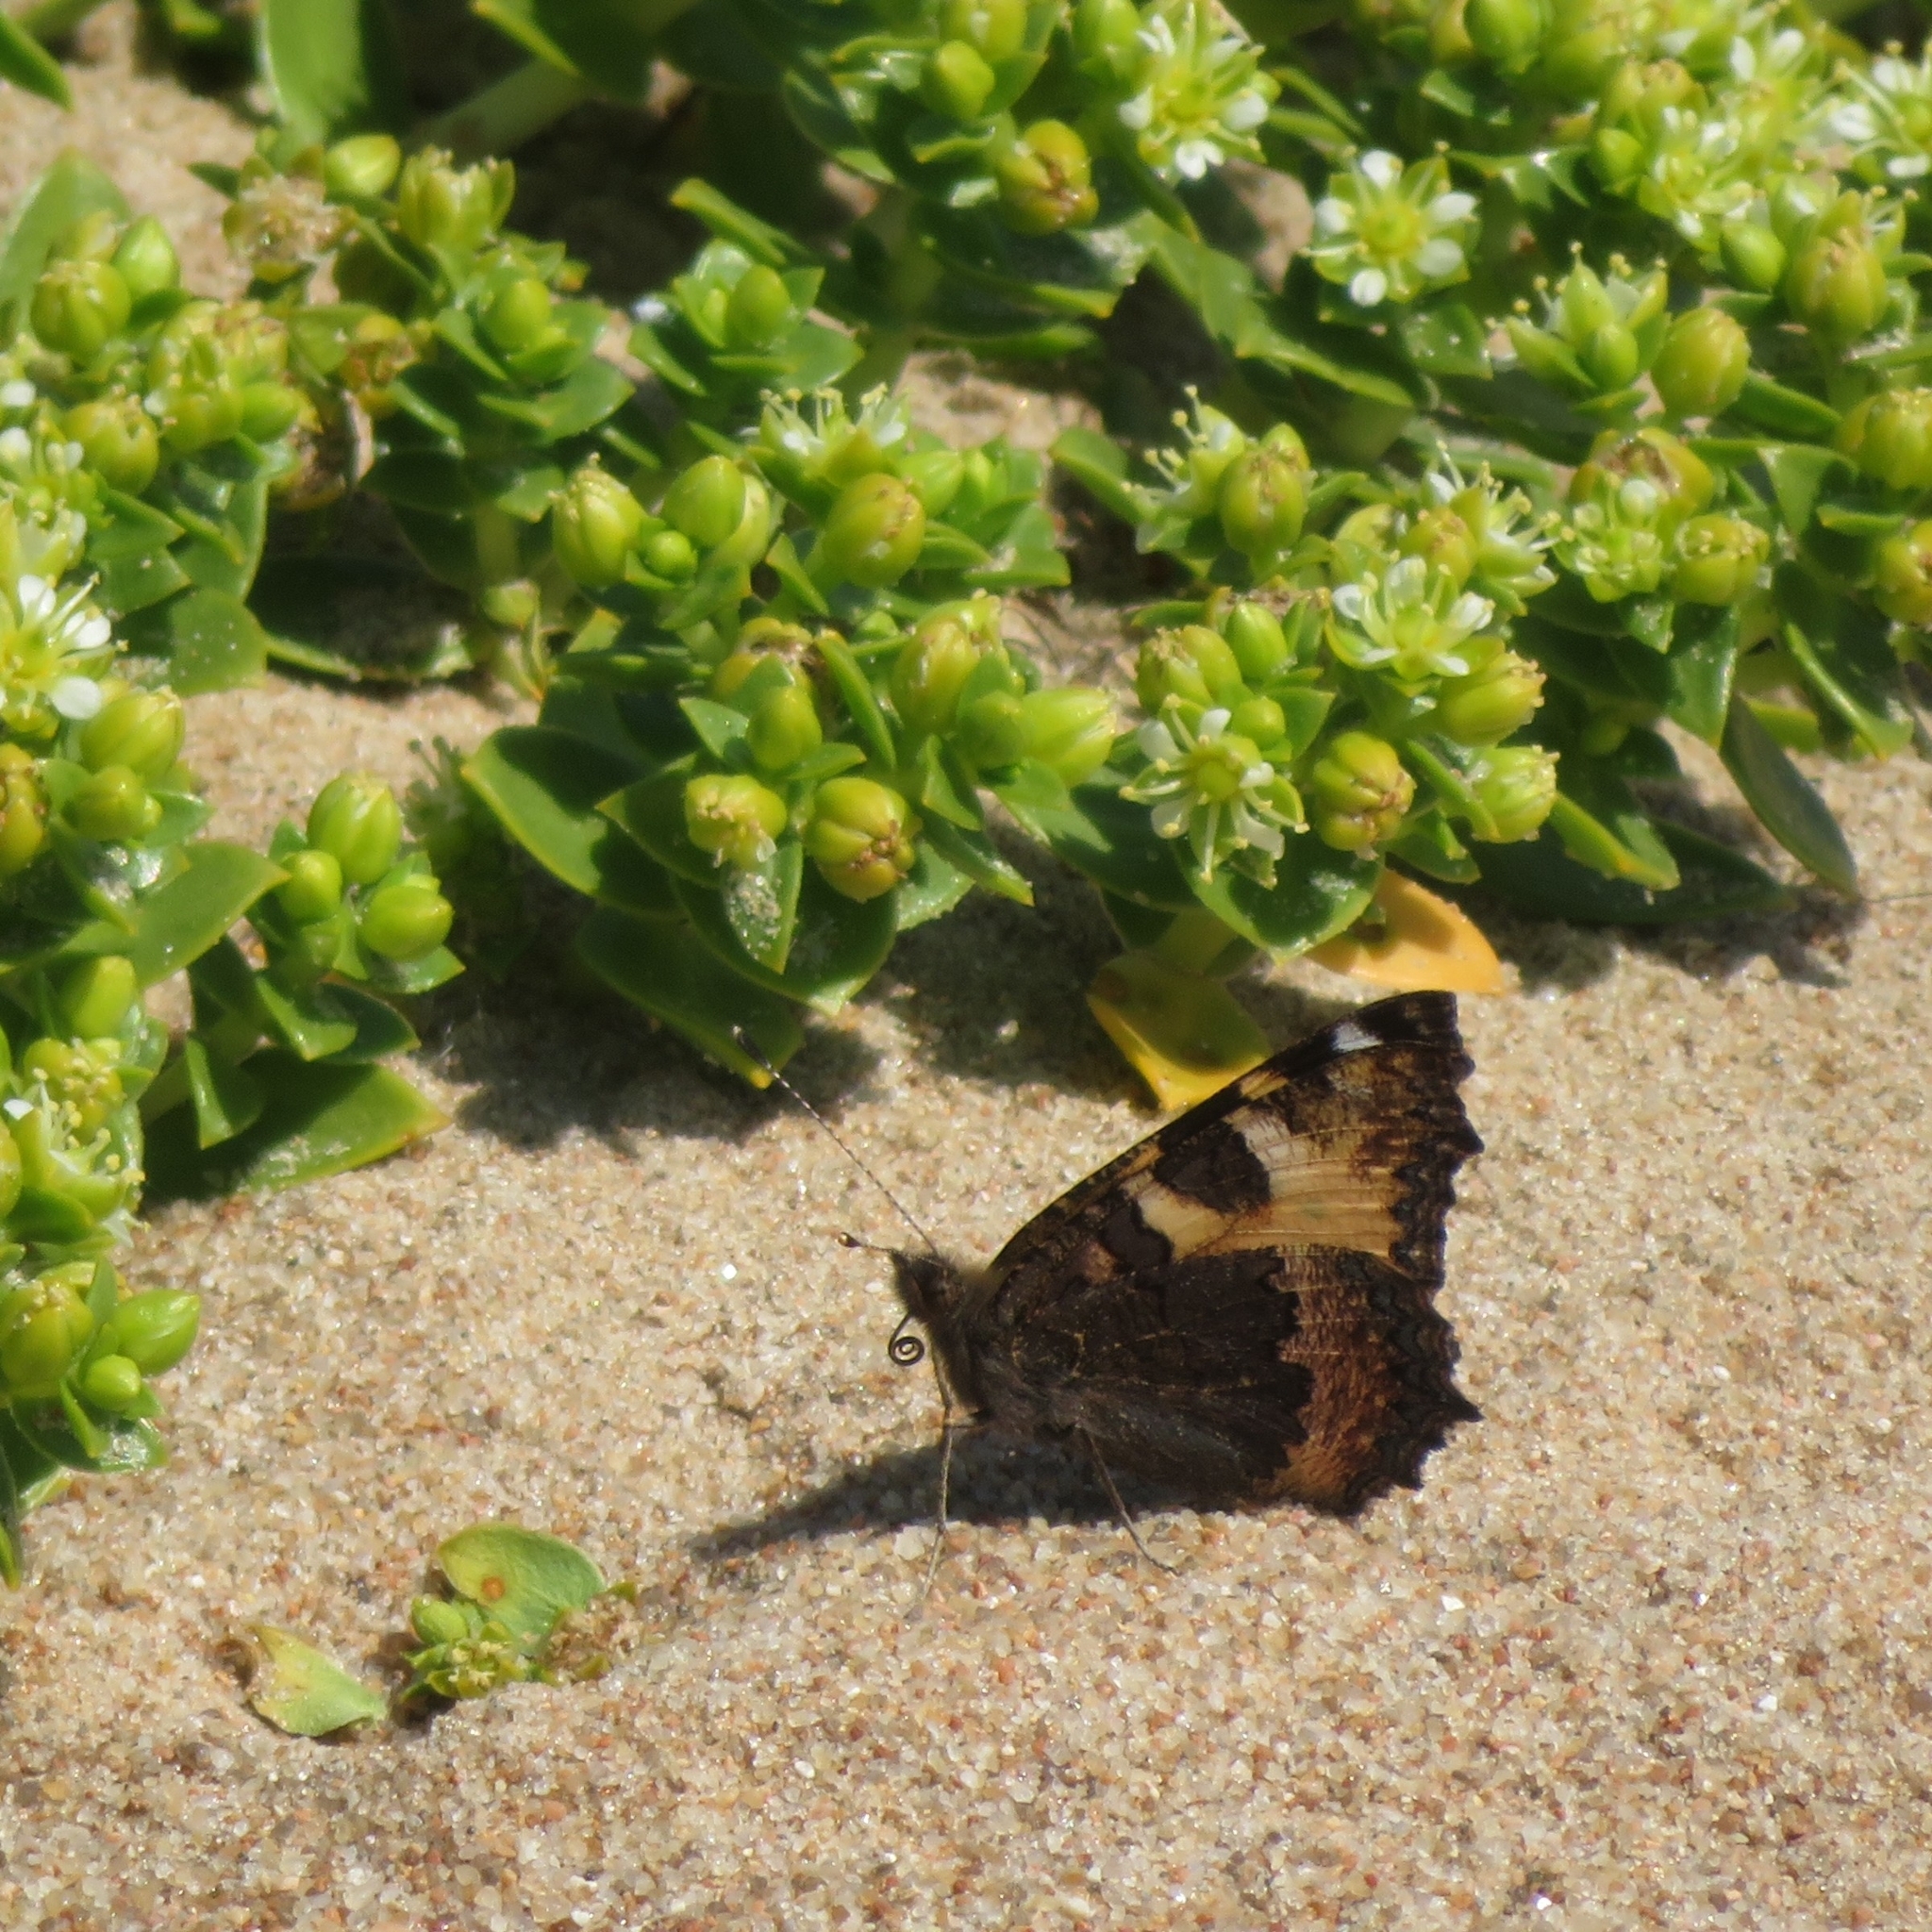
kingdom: Animalia
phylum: Arthropoda
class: Insecta
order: Lepidoptera
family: Nymphalidae
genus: Aglais
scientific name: Aglais urticae
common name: Small tortoiseshell
